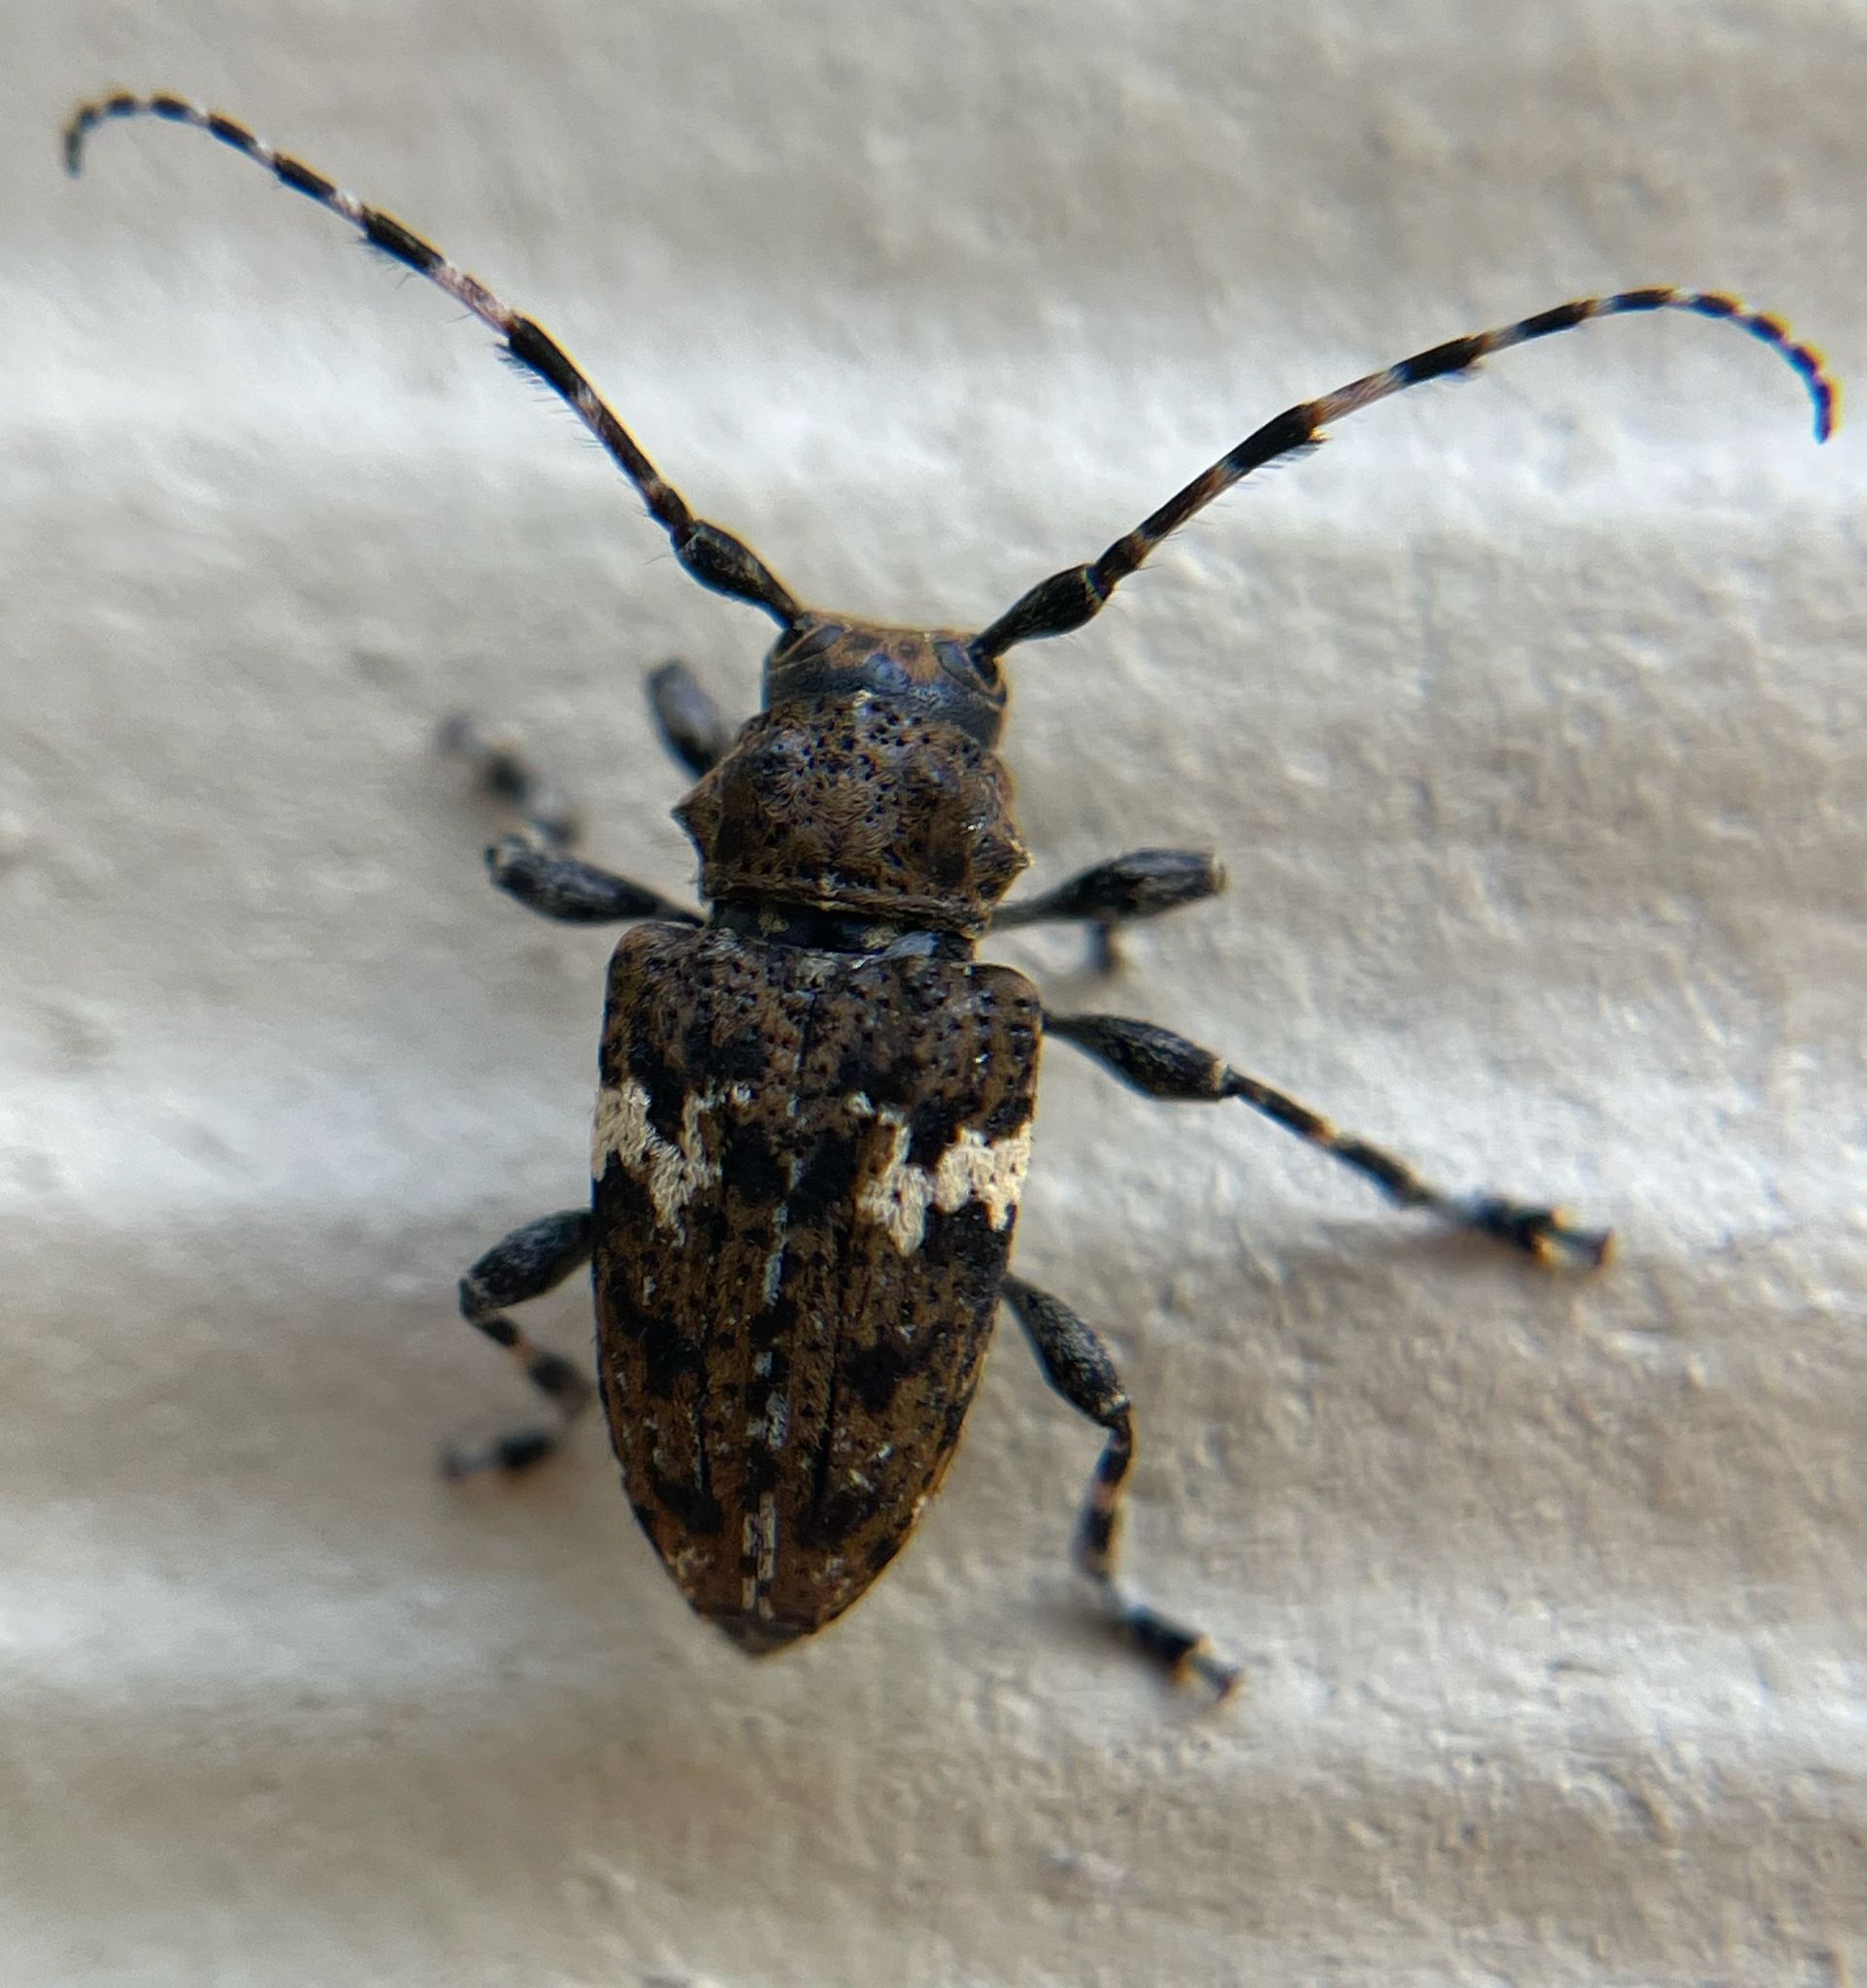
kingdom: Animalia
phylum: Arthropoda
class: Insecta
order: Coleoptera
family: Cerambycidae
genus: Acanthoderes
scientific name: Acanthoderes quadrigibba
